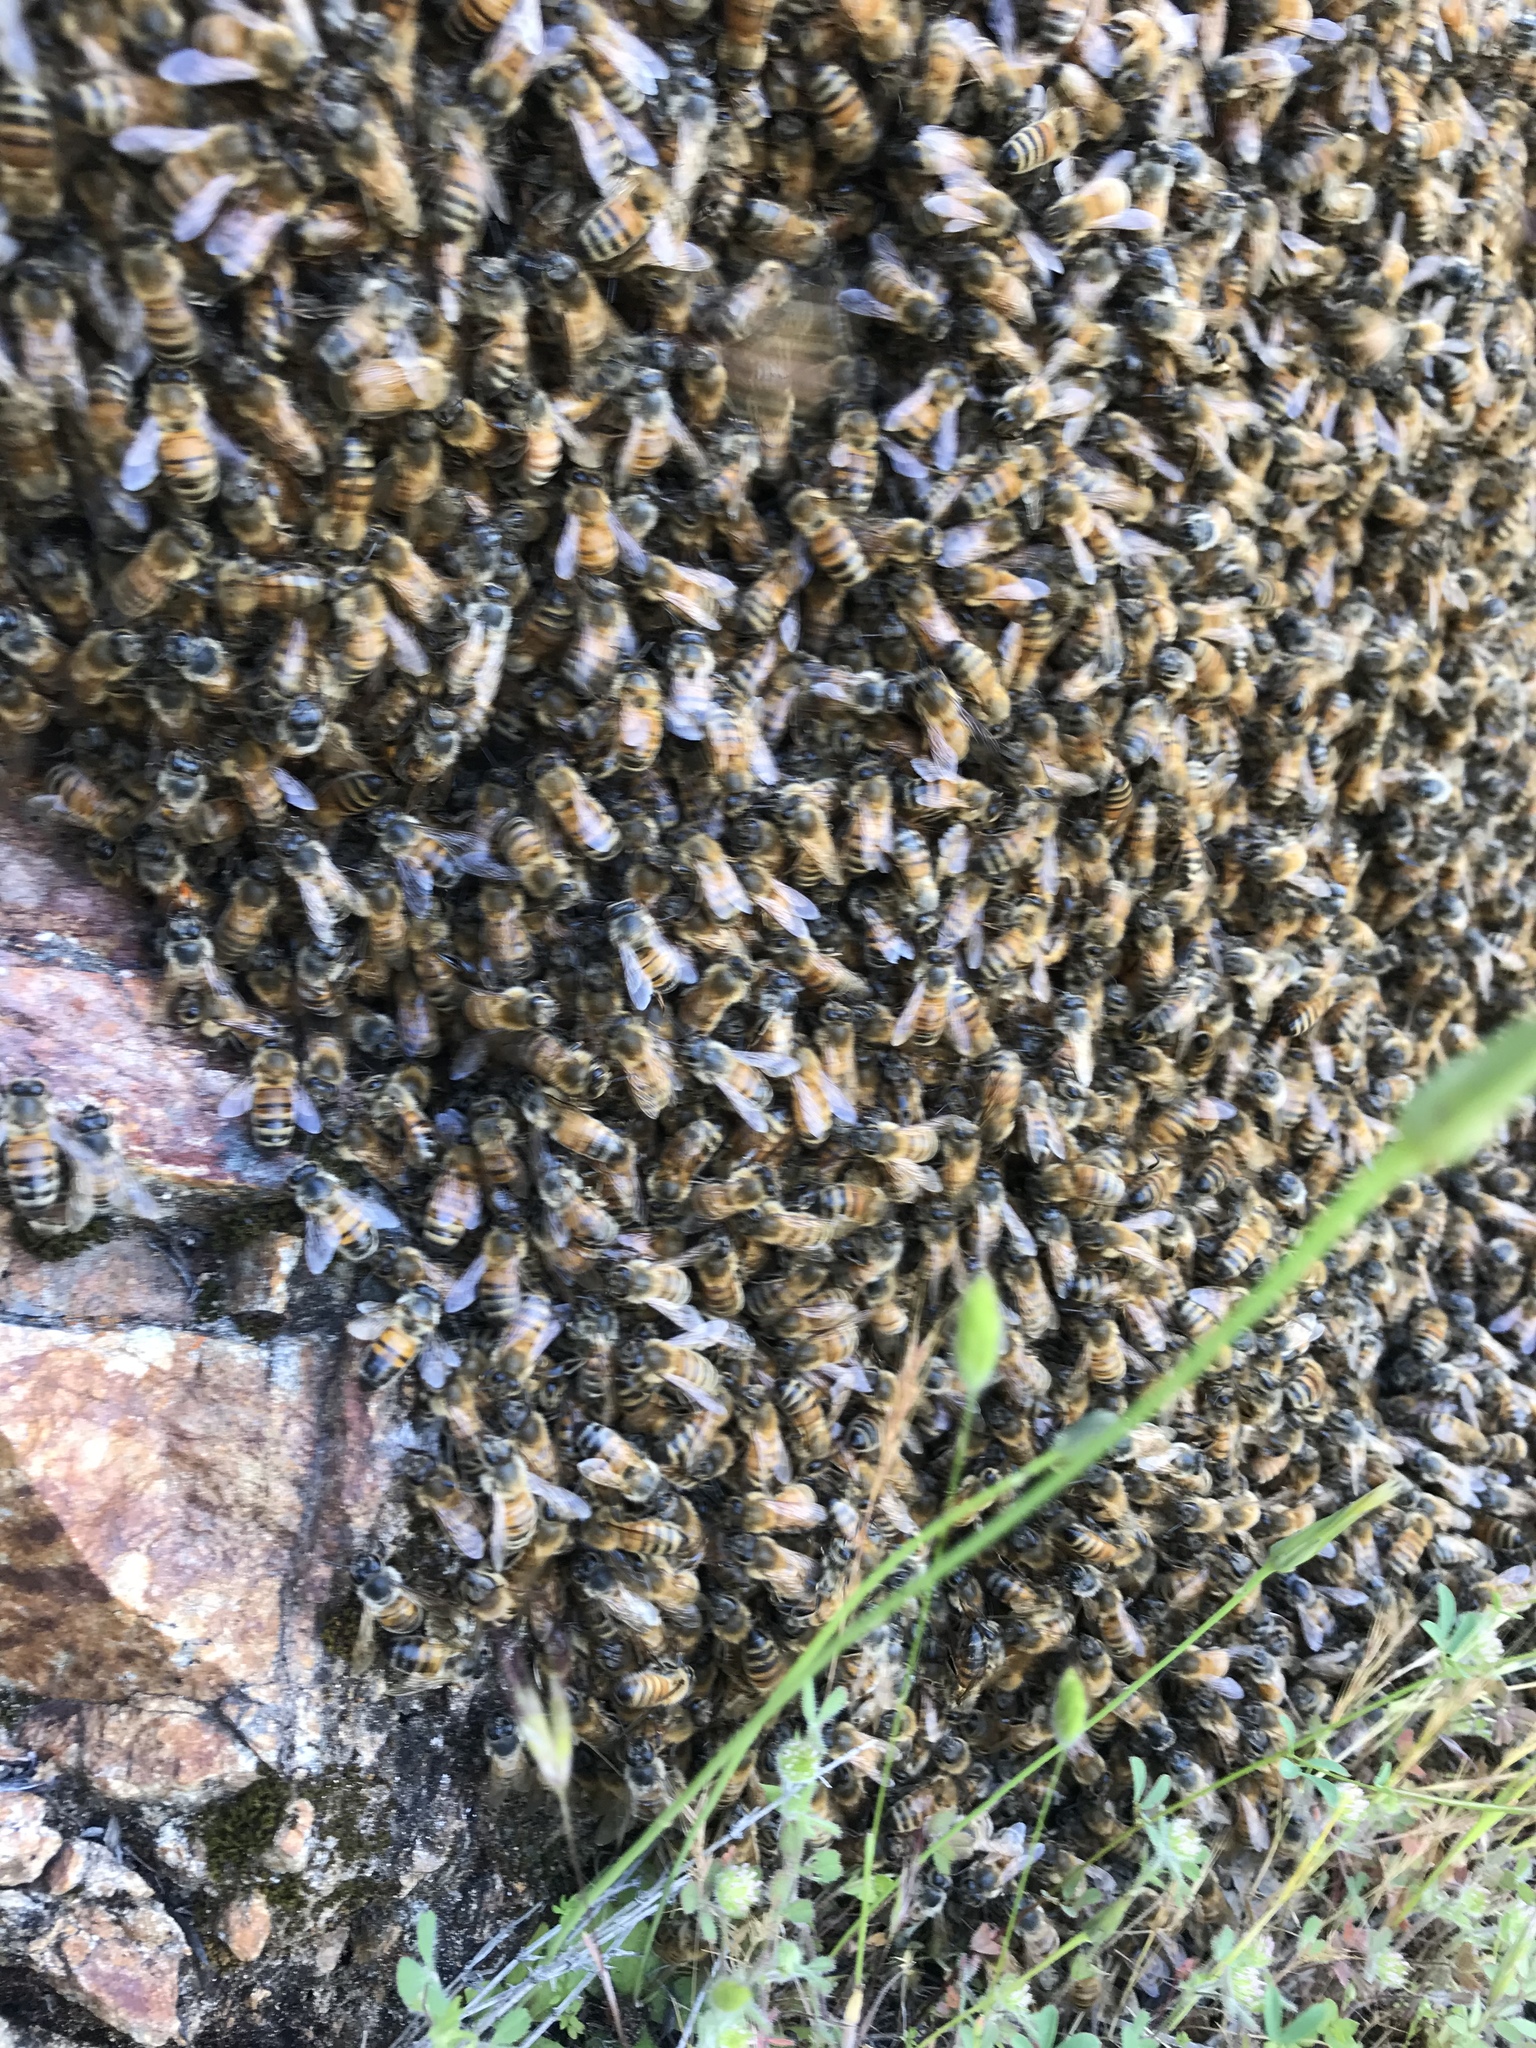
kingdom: Animalia
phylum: Arthropoda
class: Insecta
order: Hymenoptera
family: Apidae
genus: Apis
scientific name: Apis mellifera
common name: Honey bee
